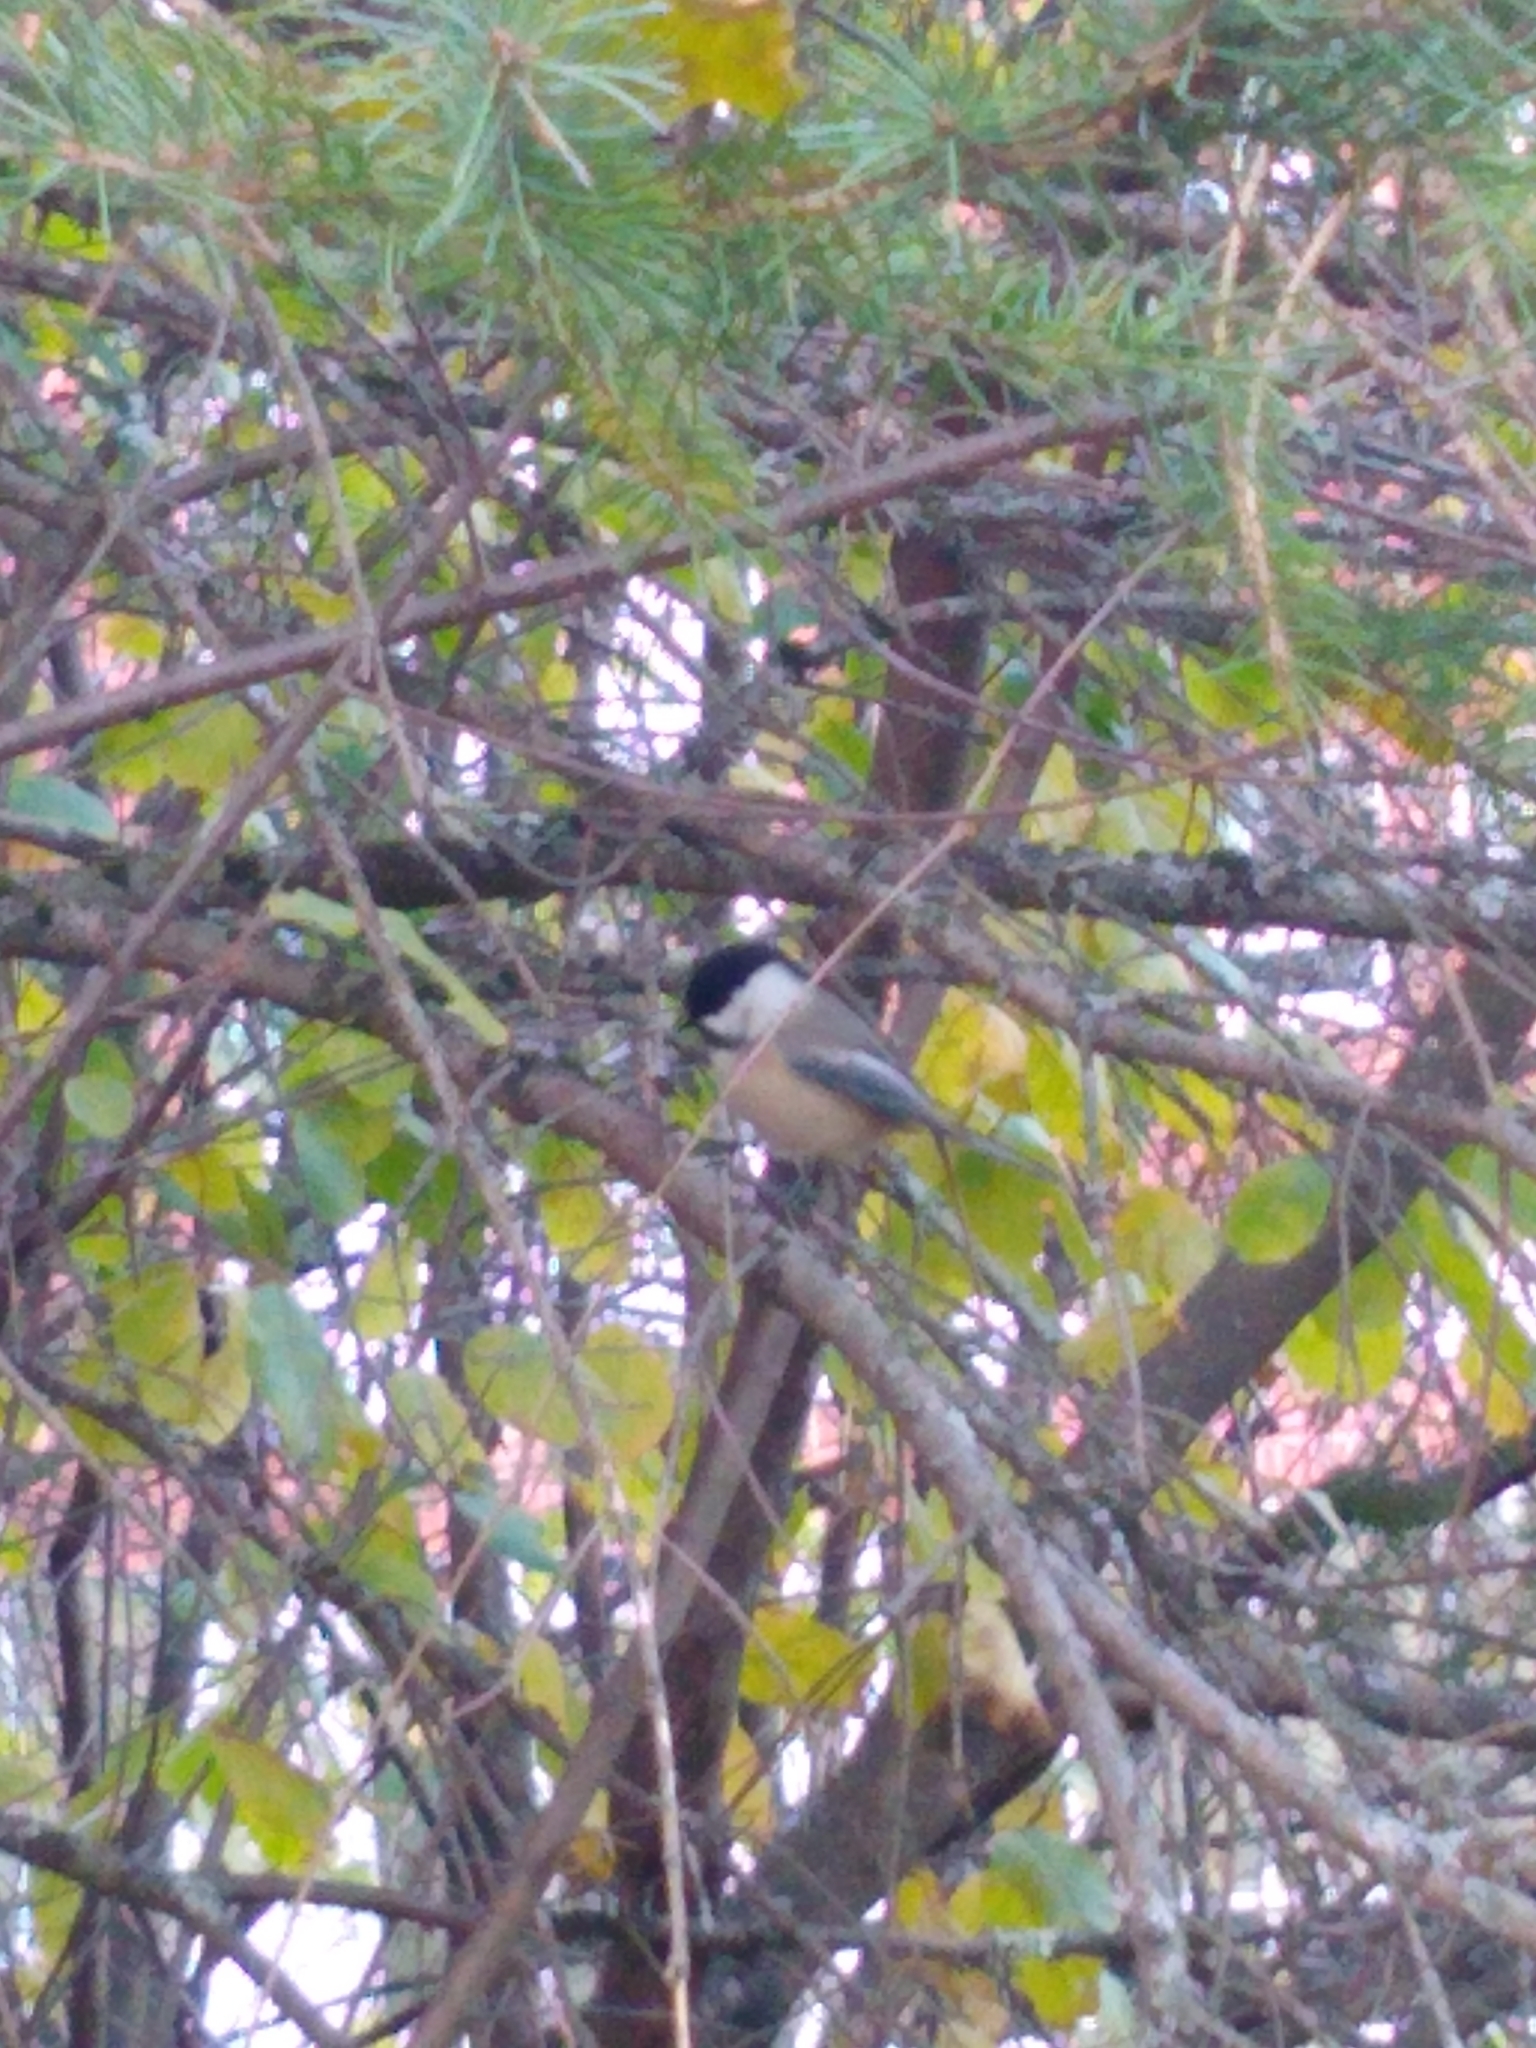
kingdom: Animalia
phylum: Chordata
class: Aves
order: Passeriformes
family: Paridae
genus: Poecile
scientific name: Poecile atricapillus
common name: Black-capped chickadee
